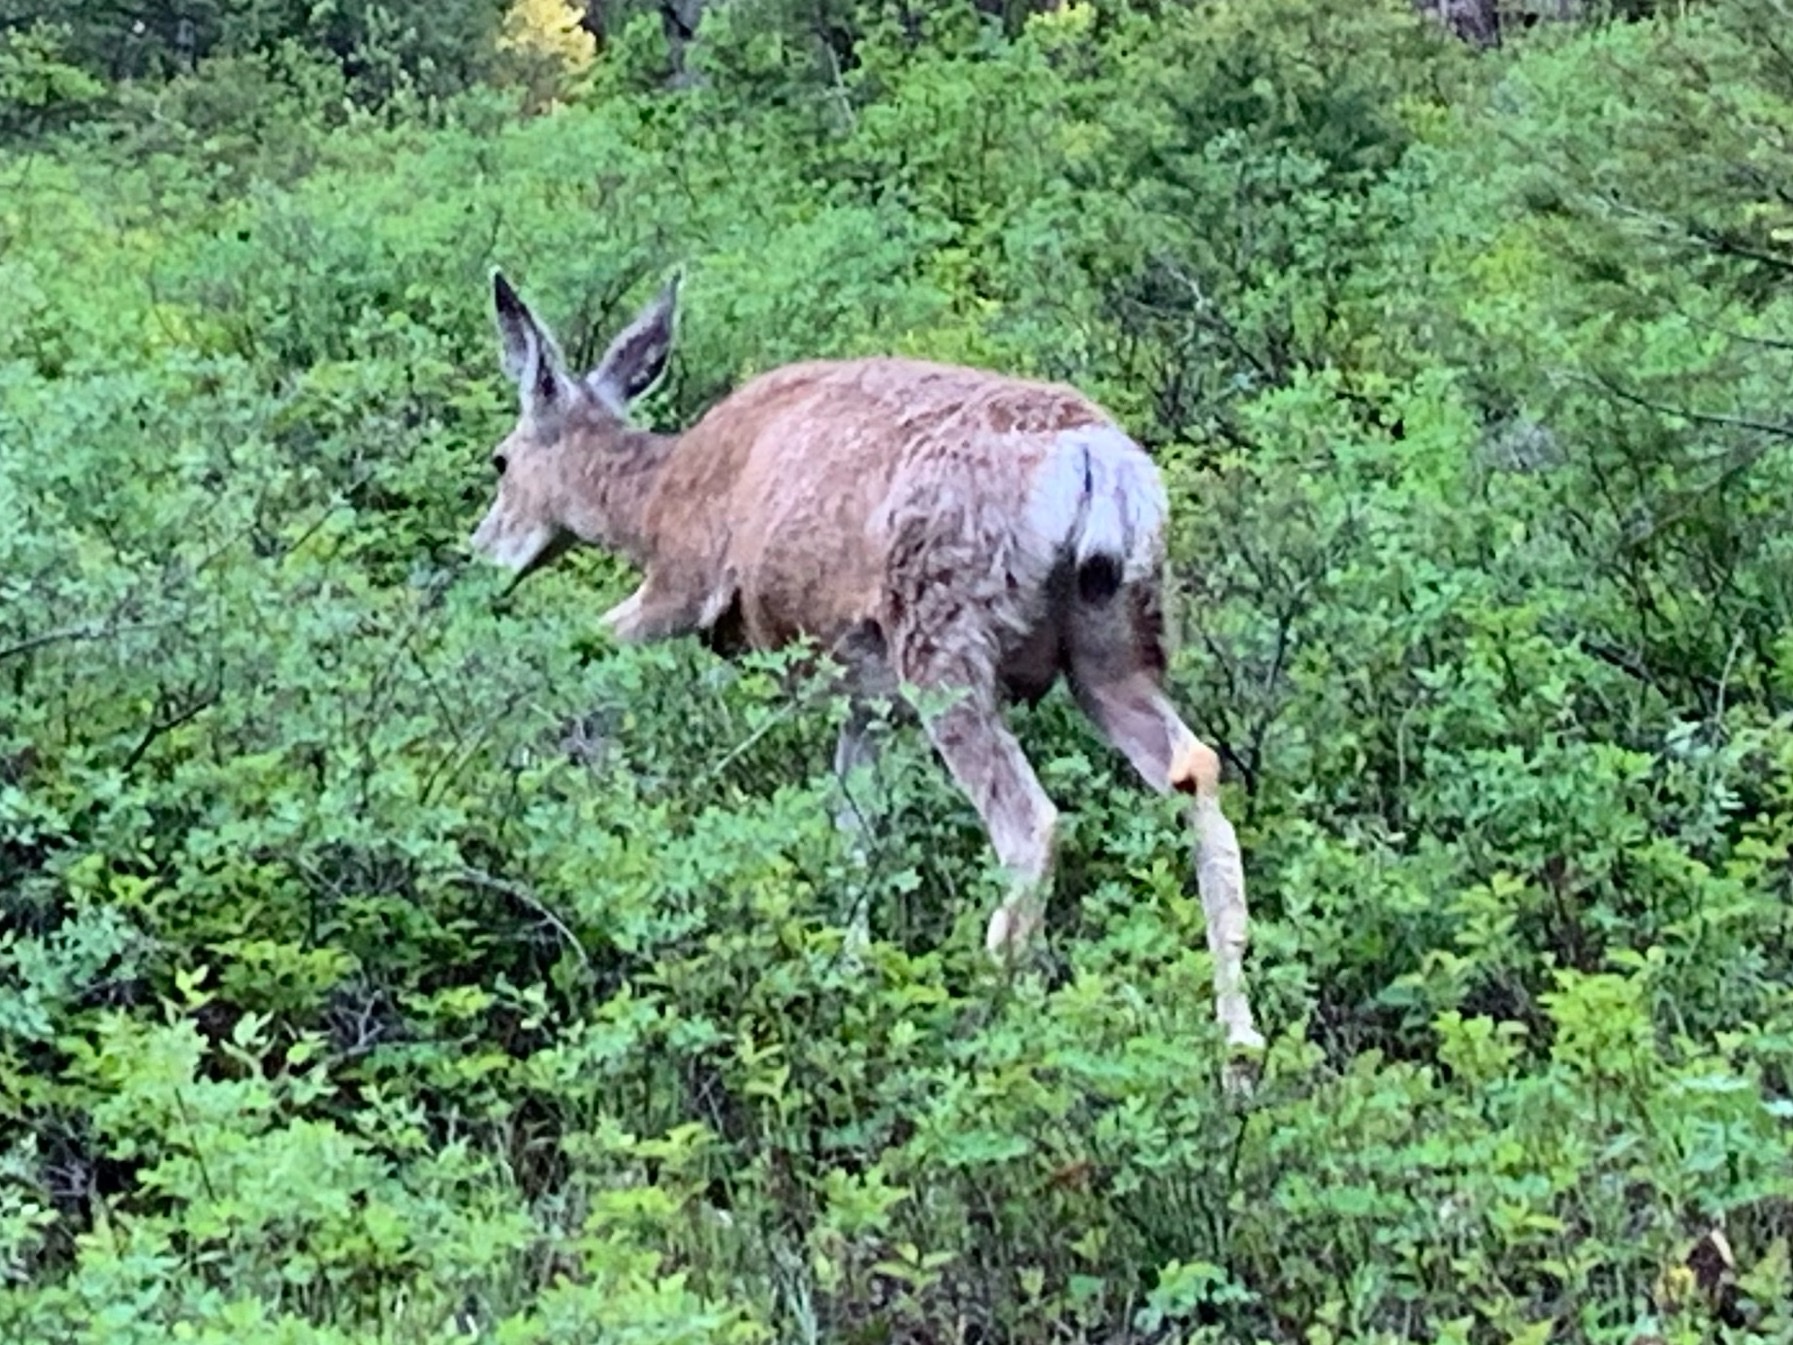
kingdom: Animalia
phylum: Chordata
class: Mammalia
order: Artiodactyla
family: Cervidae
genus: Odocoileus
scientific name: Odocoileus hemionus
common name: Mule deer
